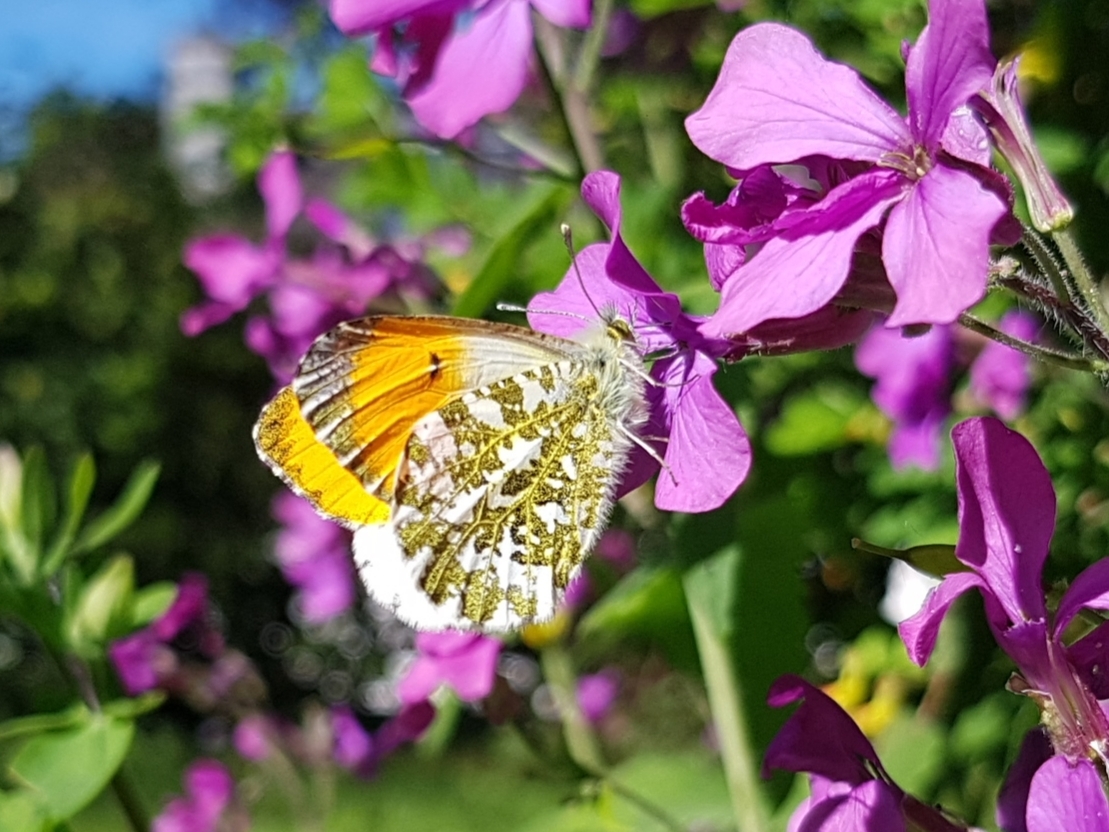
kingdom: Animalia
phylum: Arthropoda
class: Insecta
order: Lepidoptera
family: Pieridae
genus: Anthocharis
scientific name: Anthocharis cardamines
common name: Orange-tip
